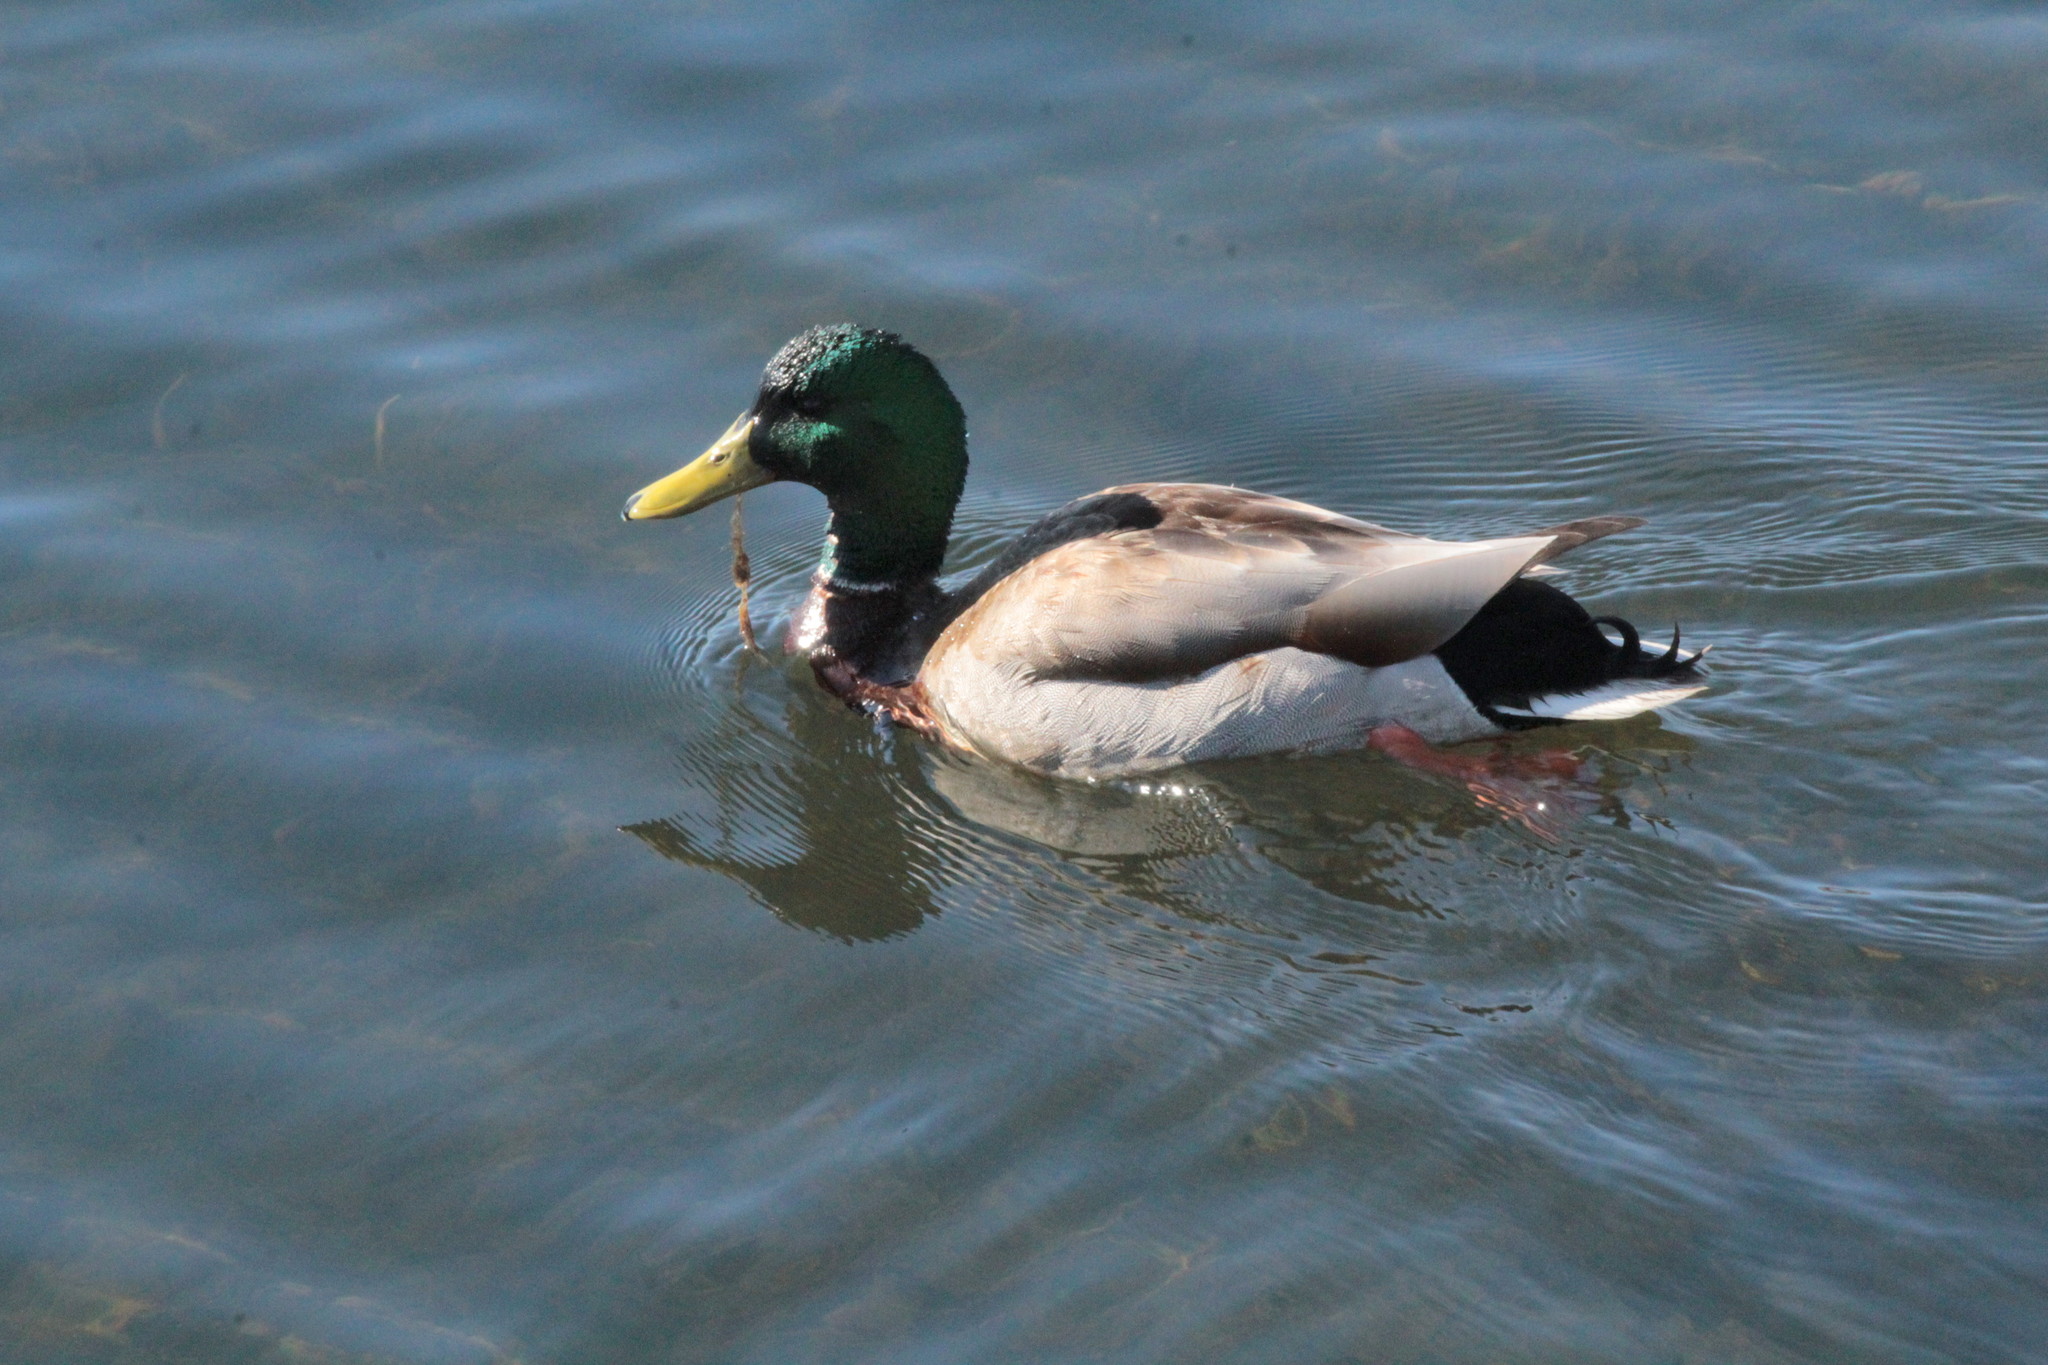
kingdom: Animalia
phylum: Chordata
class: Aves
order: Anseriformes
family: Anatidae
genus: Anas
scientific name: Anas platyrhynchos
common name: Mallard
